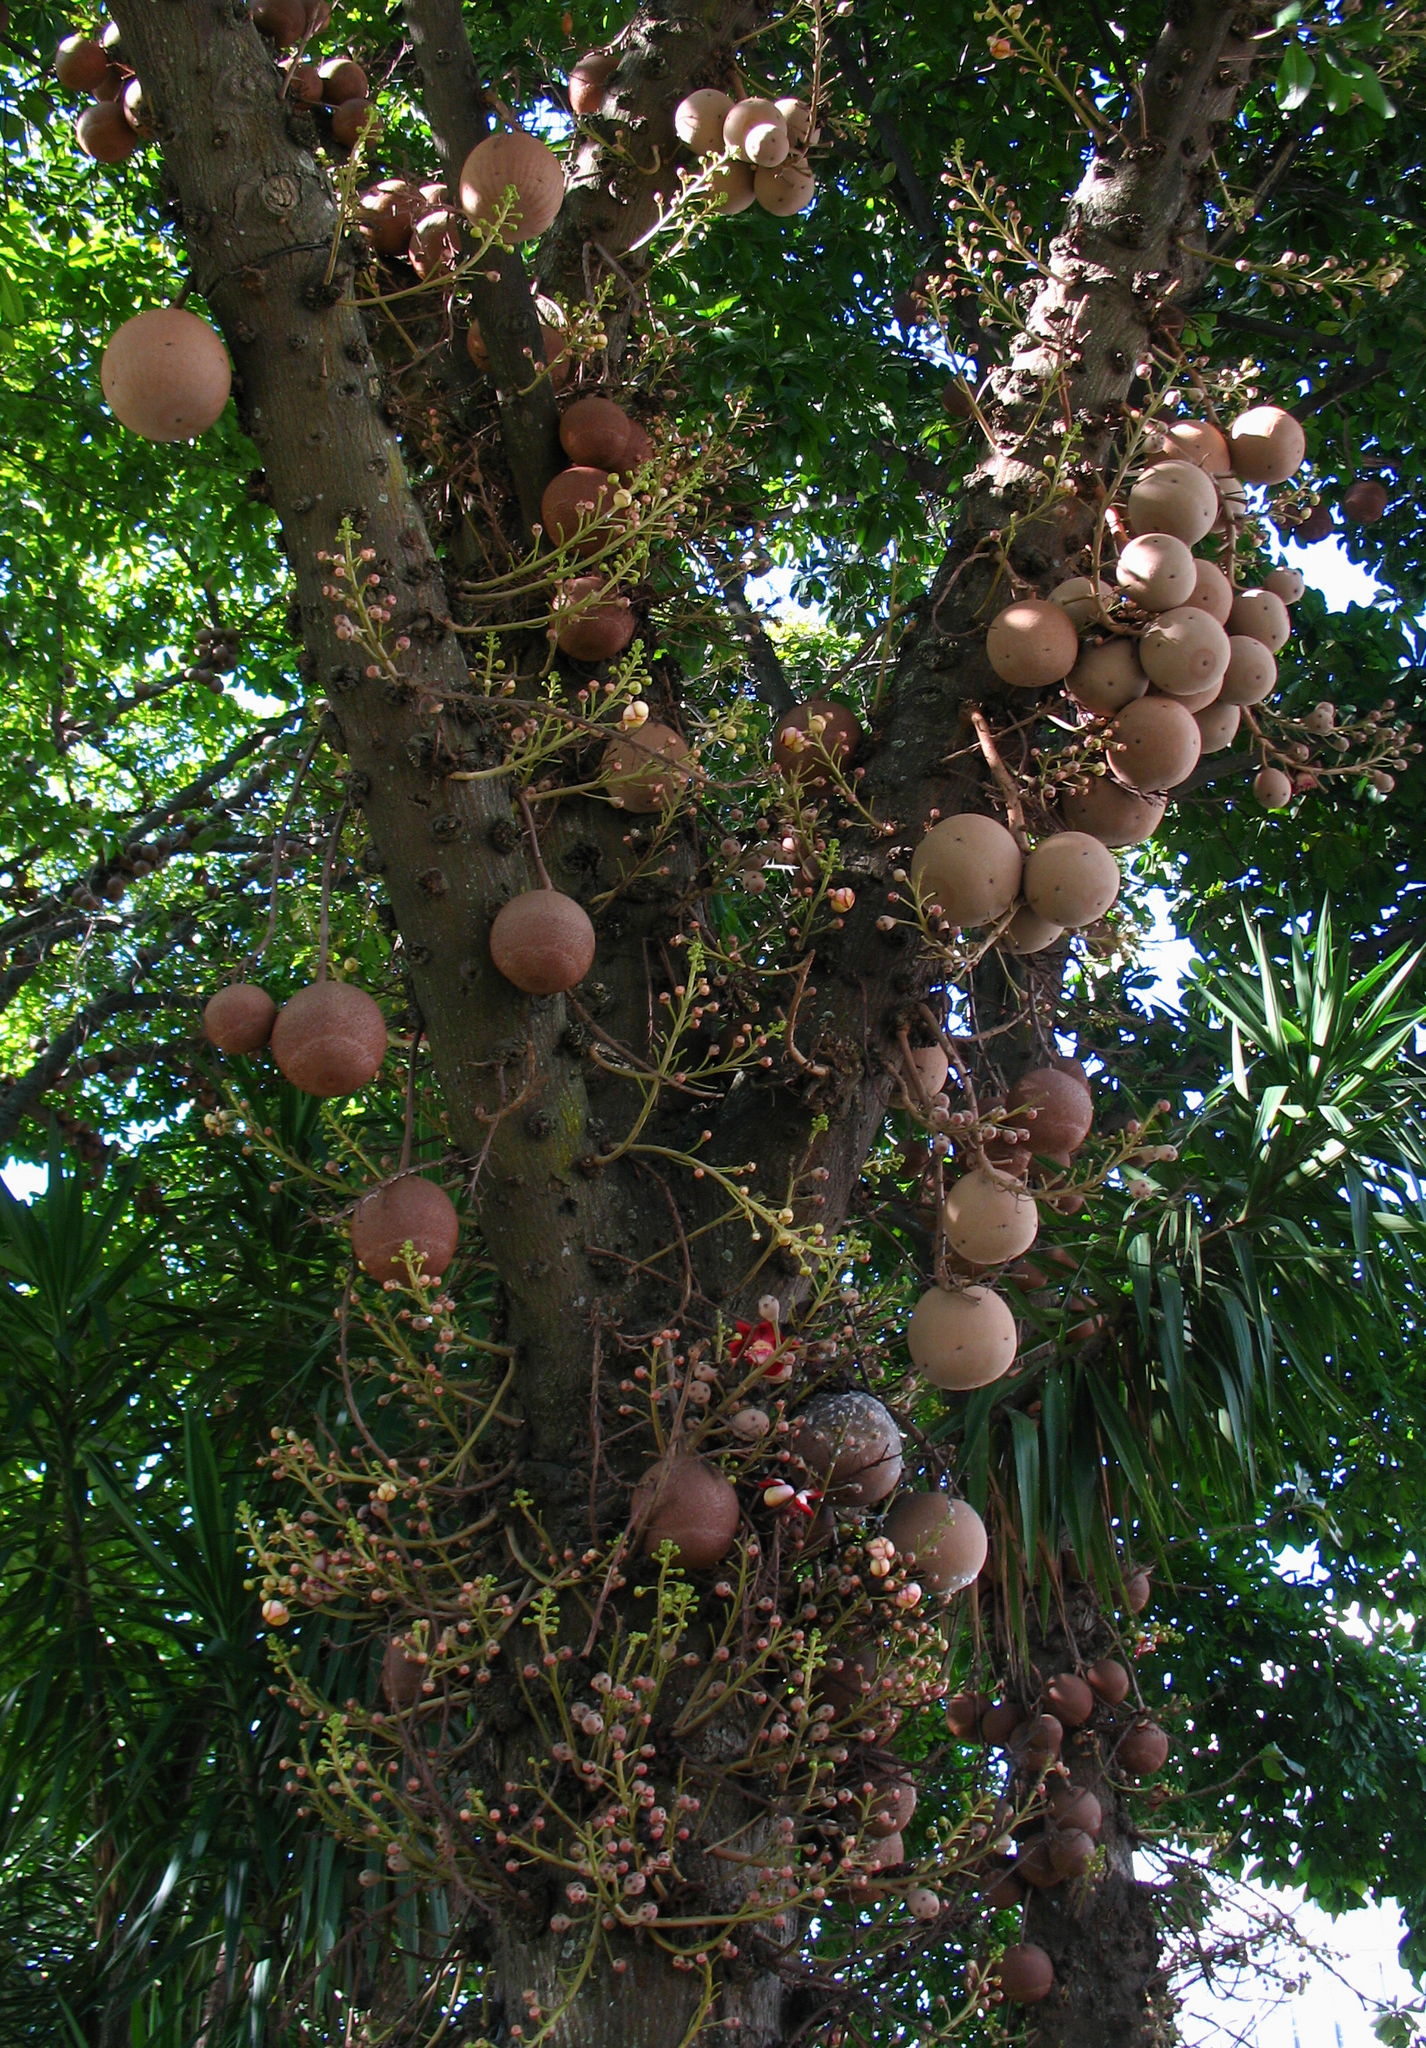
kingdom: Plantae
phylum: Tracheophyta
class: Magnoliopsida
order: Ericales
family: Lecythidaceae
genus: Couroupita
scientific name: Couroupita guianensis
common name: Cannonball tree
